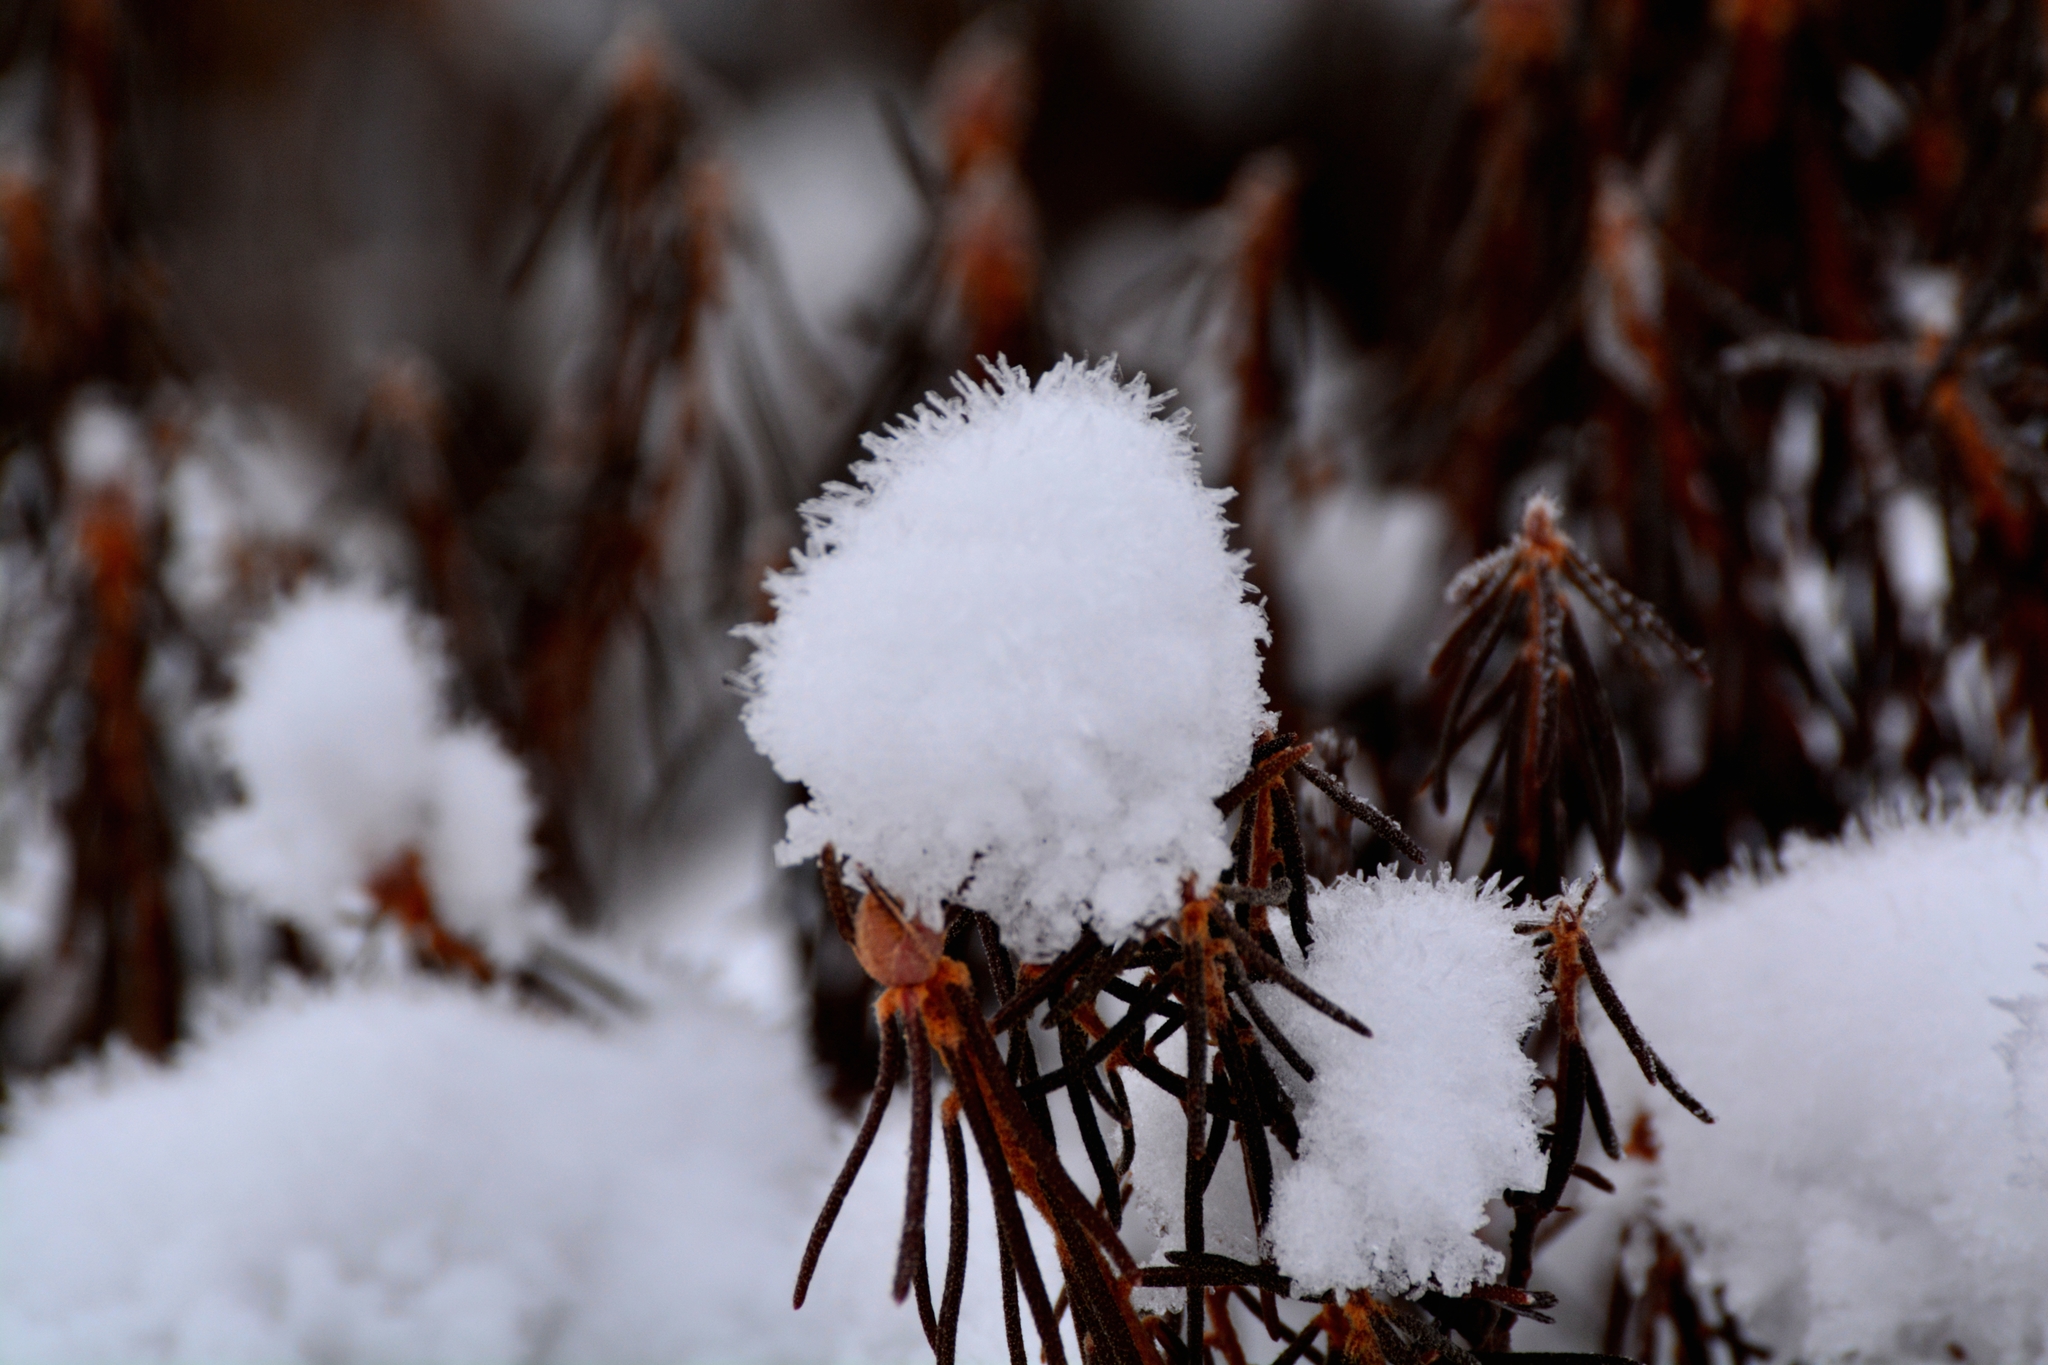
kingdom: Plantae
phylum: Tracheophyta
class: Magnoliopsida
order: Ericales
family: Ericaceae
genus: Rhododendron
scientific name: Rhododendron tomentosum
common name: Marsh labrador tea
